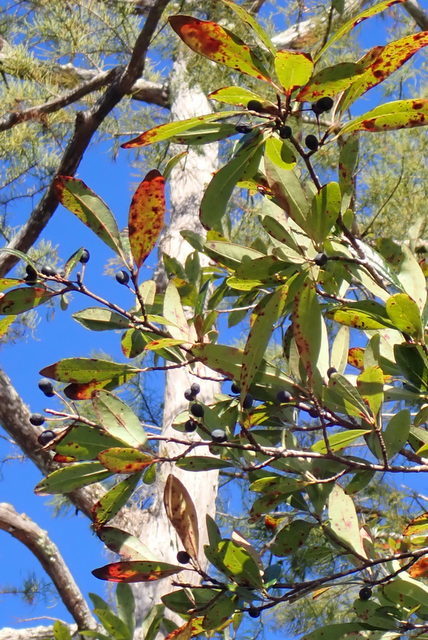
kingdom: Plantae
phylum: Tracheophyta
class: Magnoliopsida
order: Cornales
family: Nyssaceae
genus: Nyssa
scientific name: Nyssa biflora
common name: Swamp blackgum
